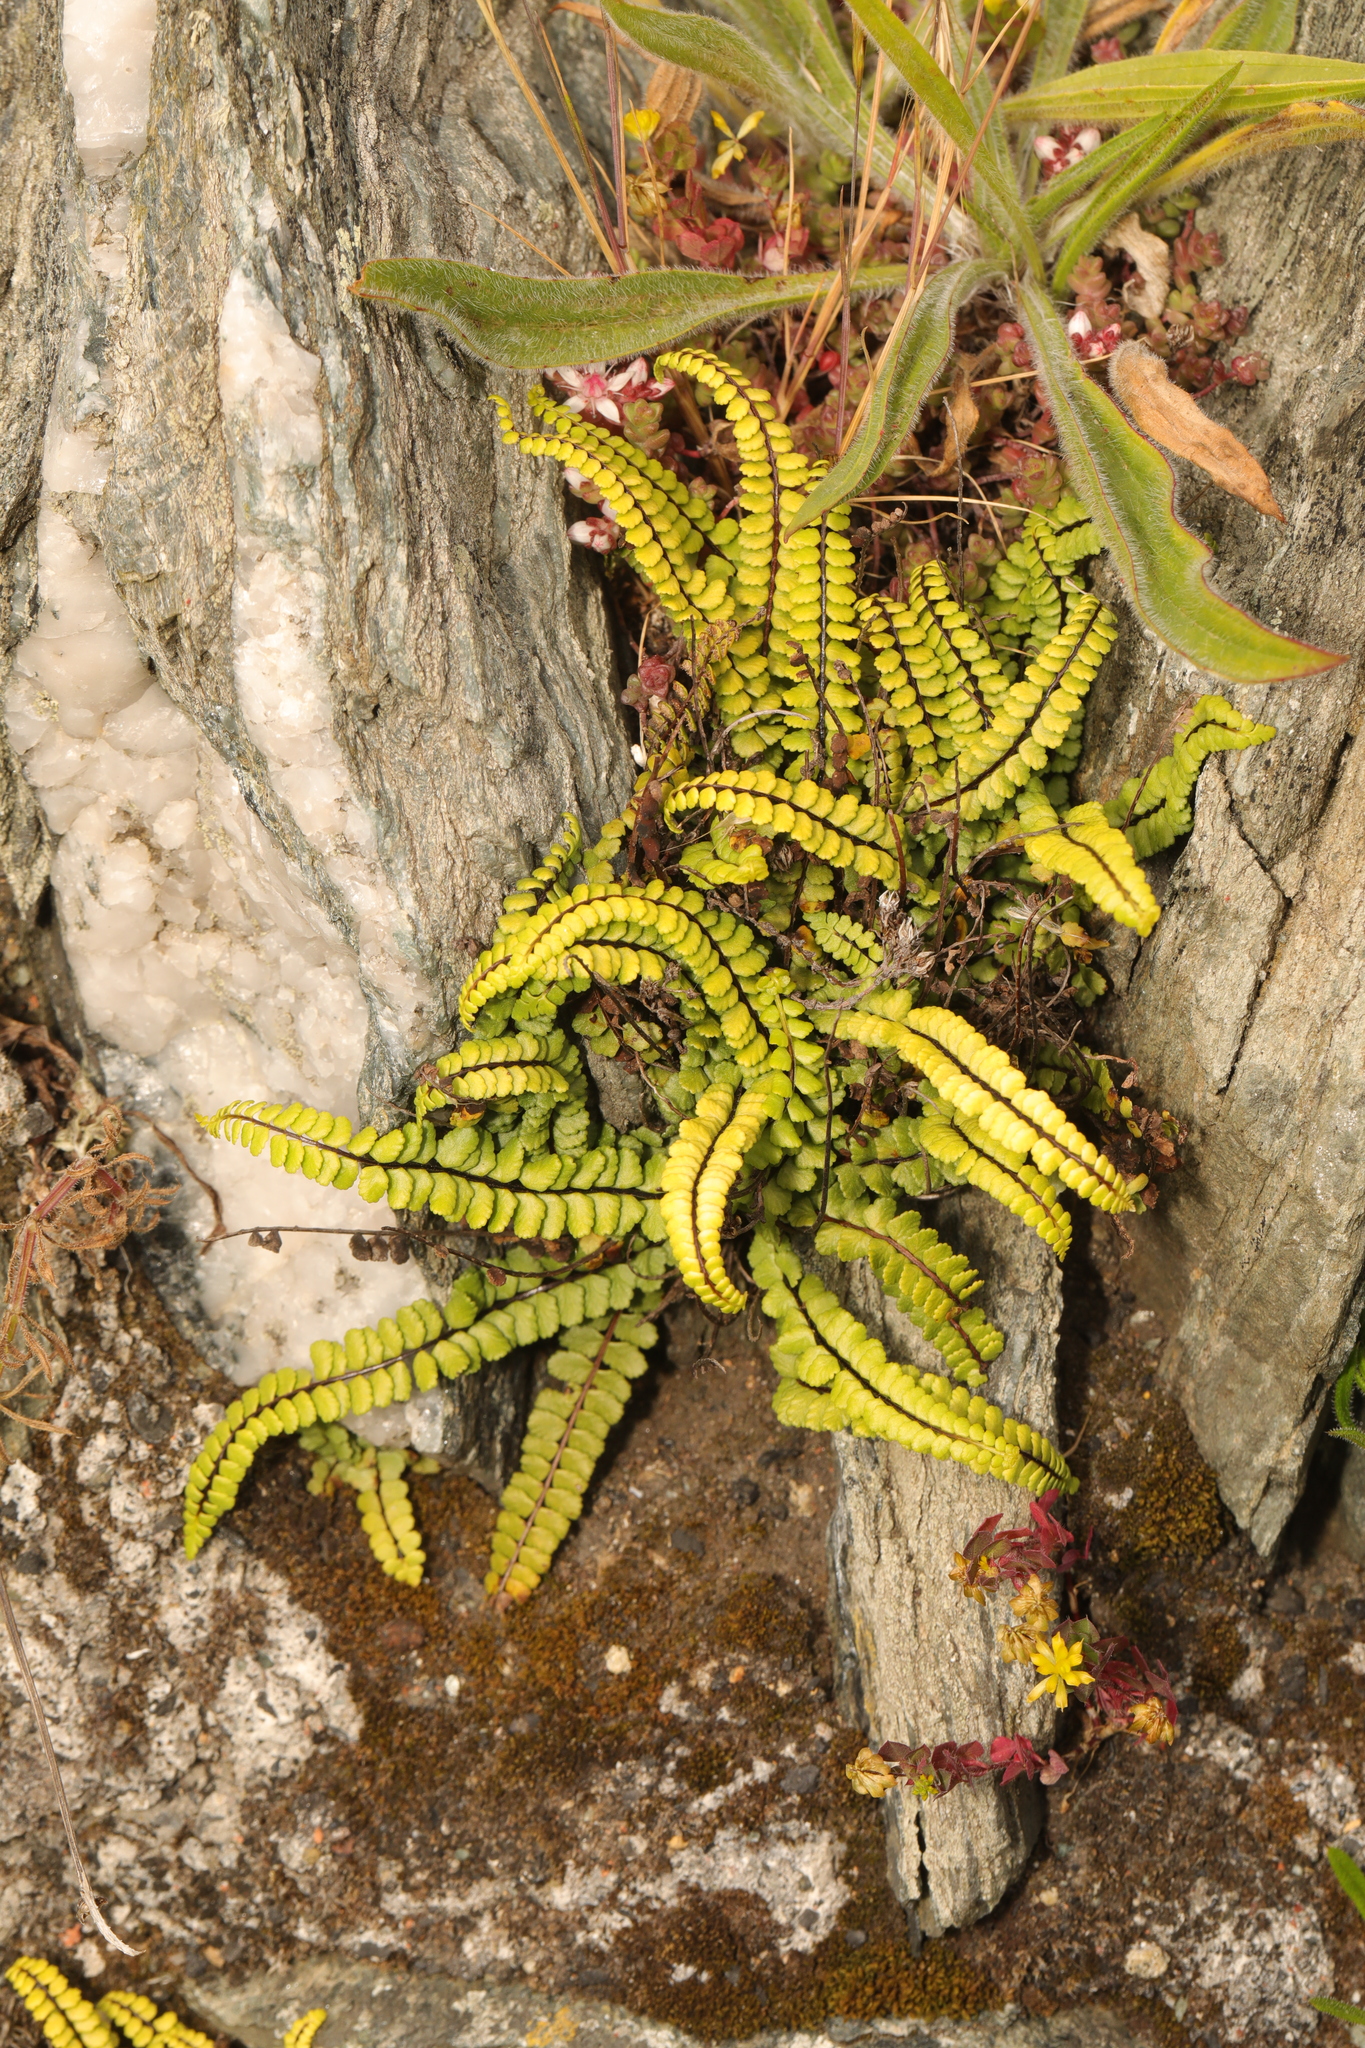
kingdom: Plantae
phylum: Tracheophyta
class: Polypodiopsida
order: Polypodiales
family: Aspleniaceae
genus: Asplenium
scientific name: Asplenium trichomanes
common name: Maidenhair spleenwort
